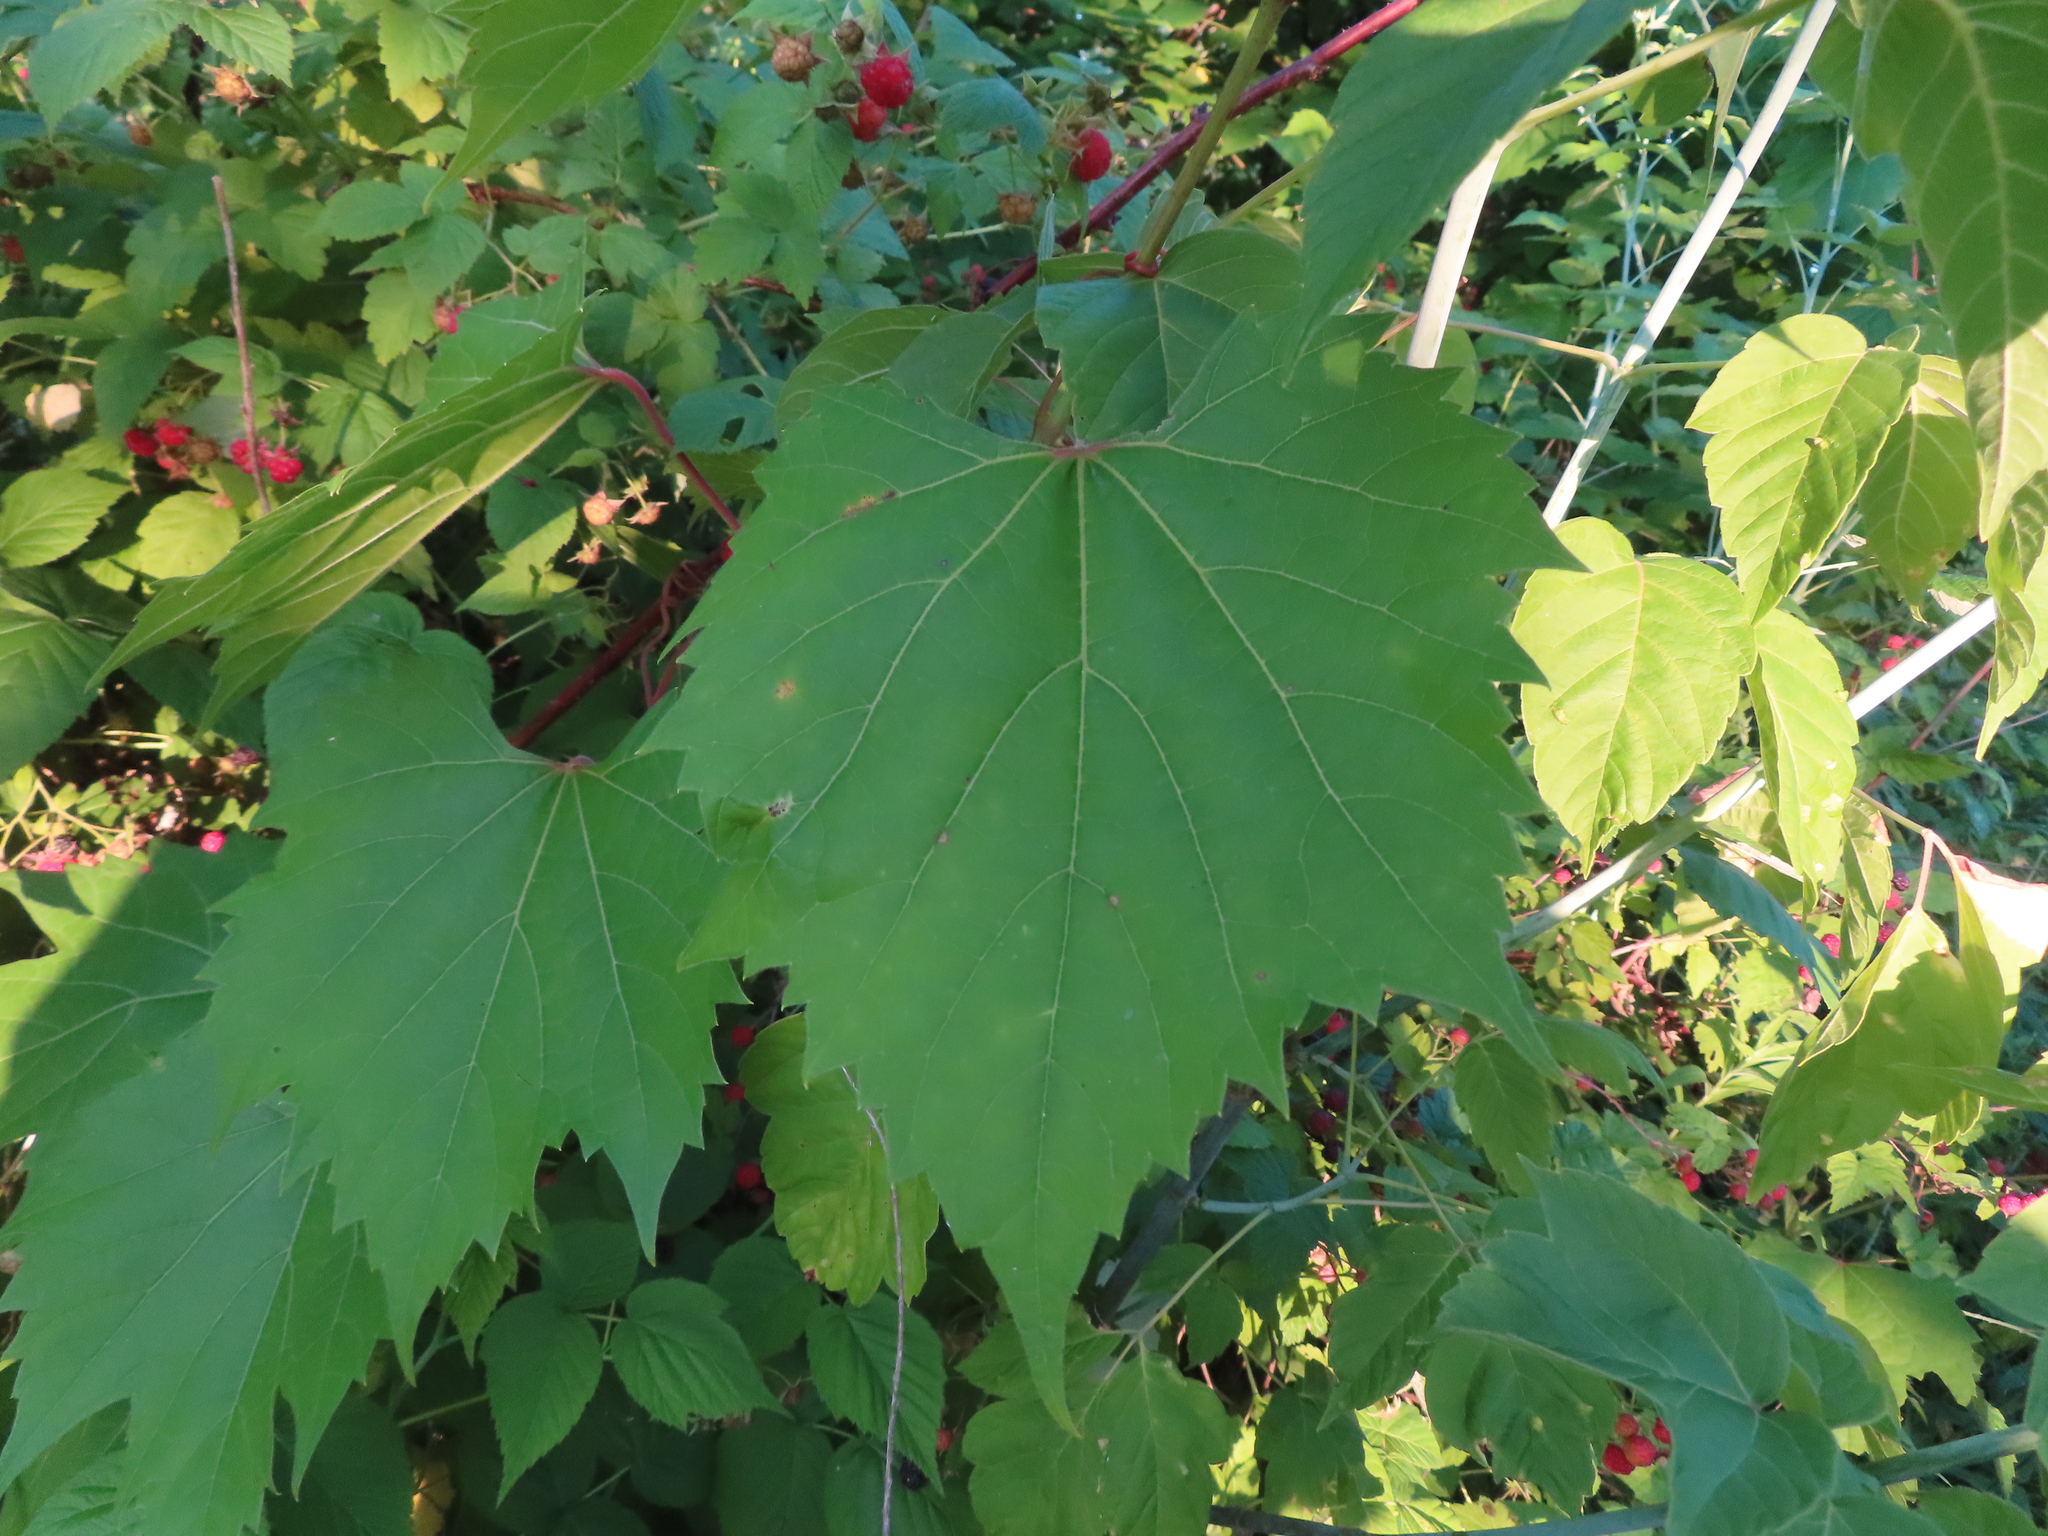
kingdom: Plantae
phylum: Tracheophyta
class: Magnoliopsida
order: Vitales
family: Vitaceae
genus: Vitis
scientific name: Vitis riparia
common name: Frost grape
